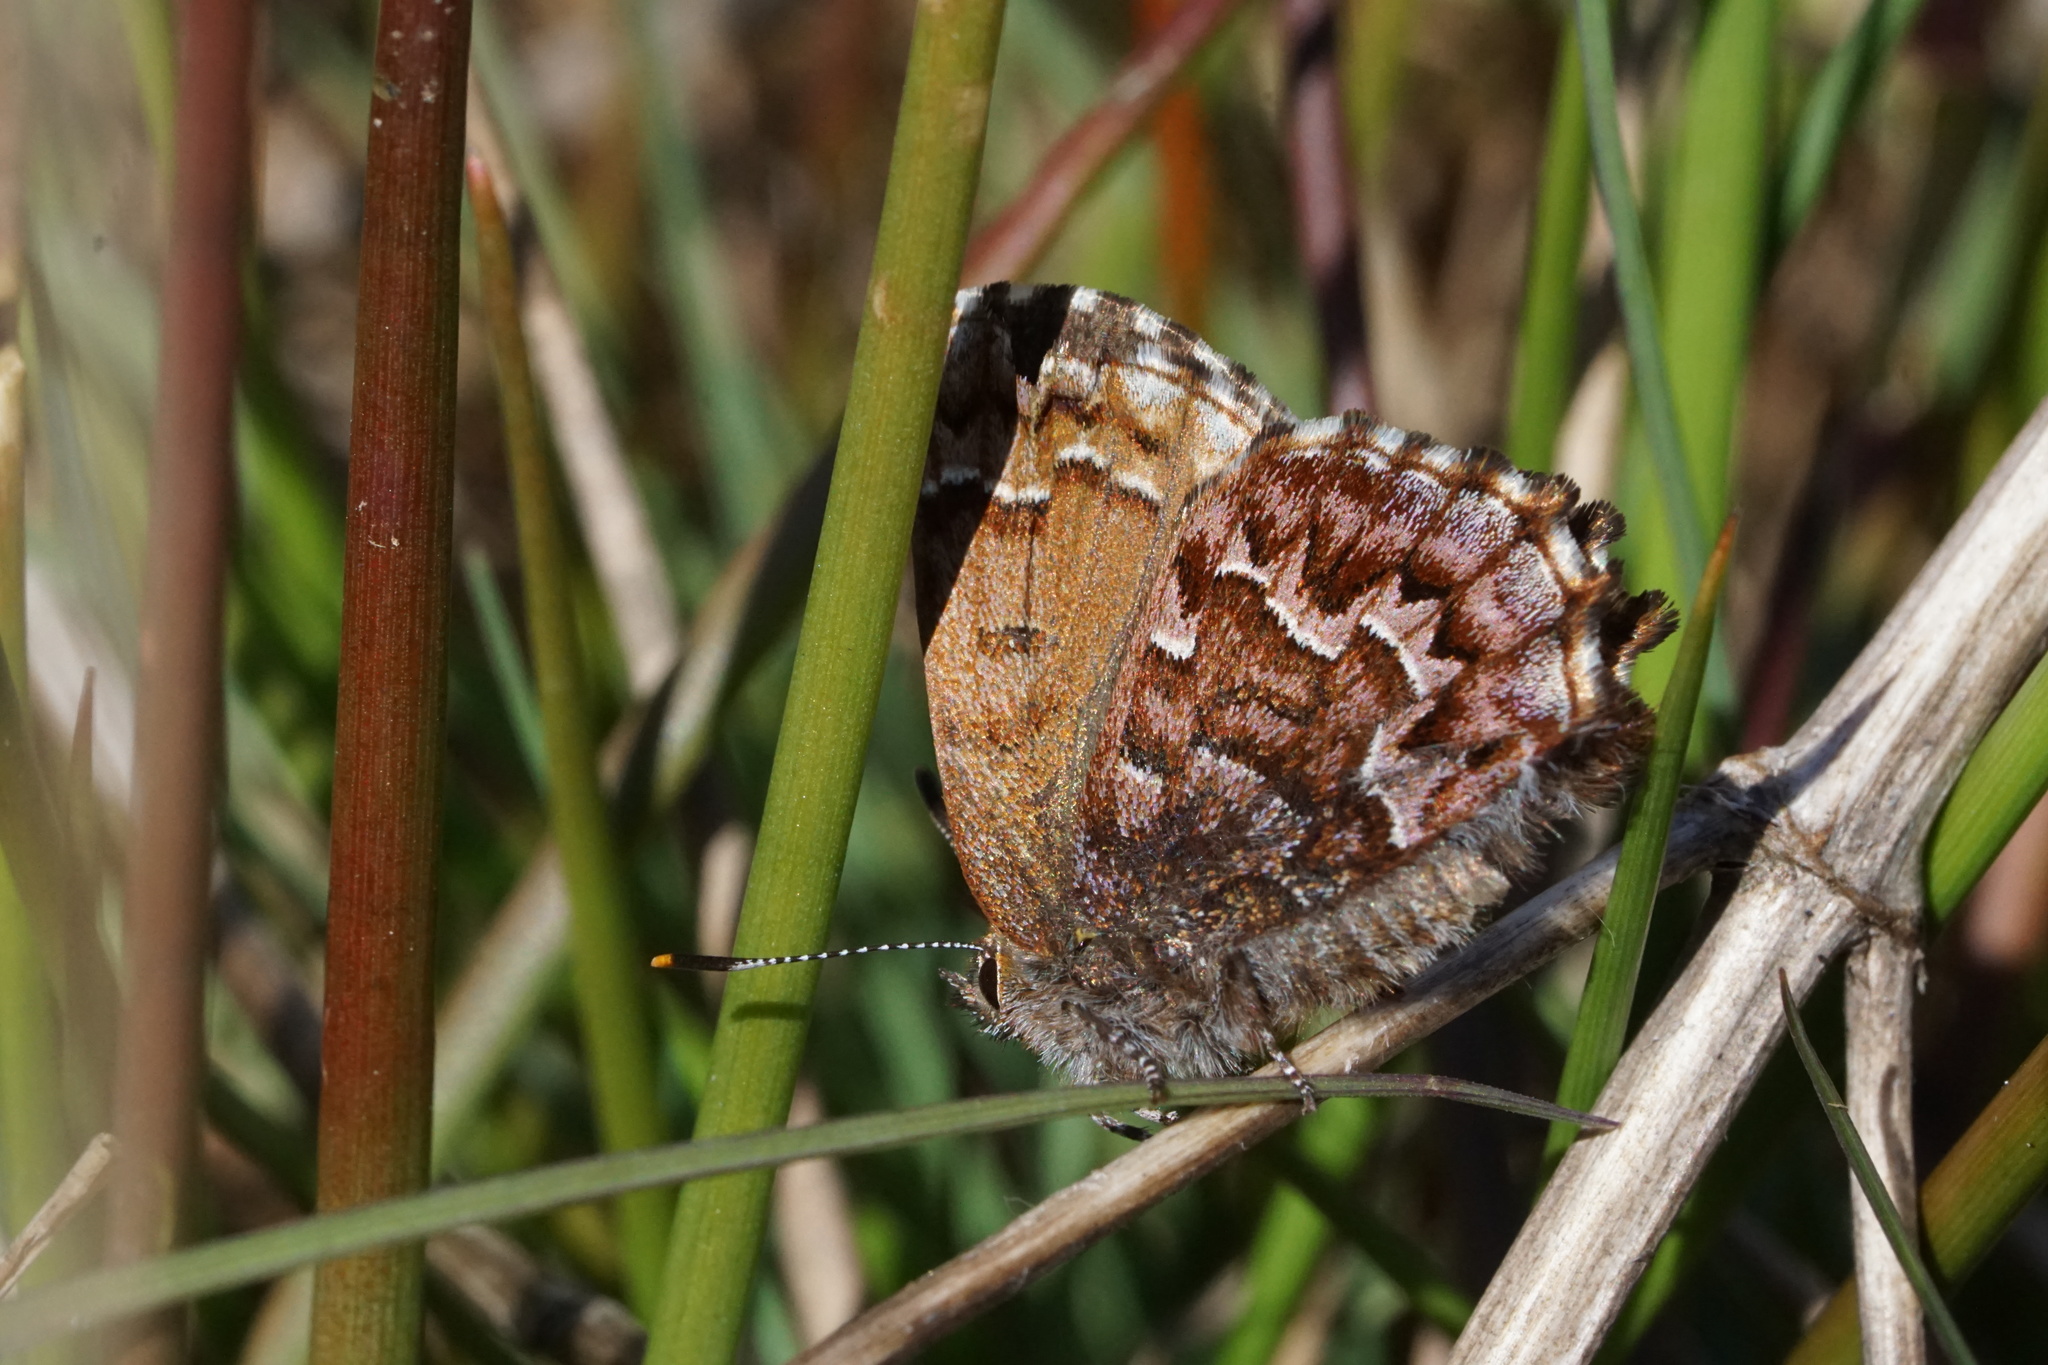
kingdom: Animalia
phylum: Arthropoda
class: Insecta
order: Lepidoptera
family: Lycaenidae
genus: Incisalia
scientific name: Incisalia niphon
